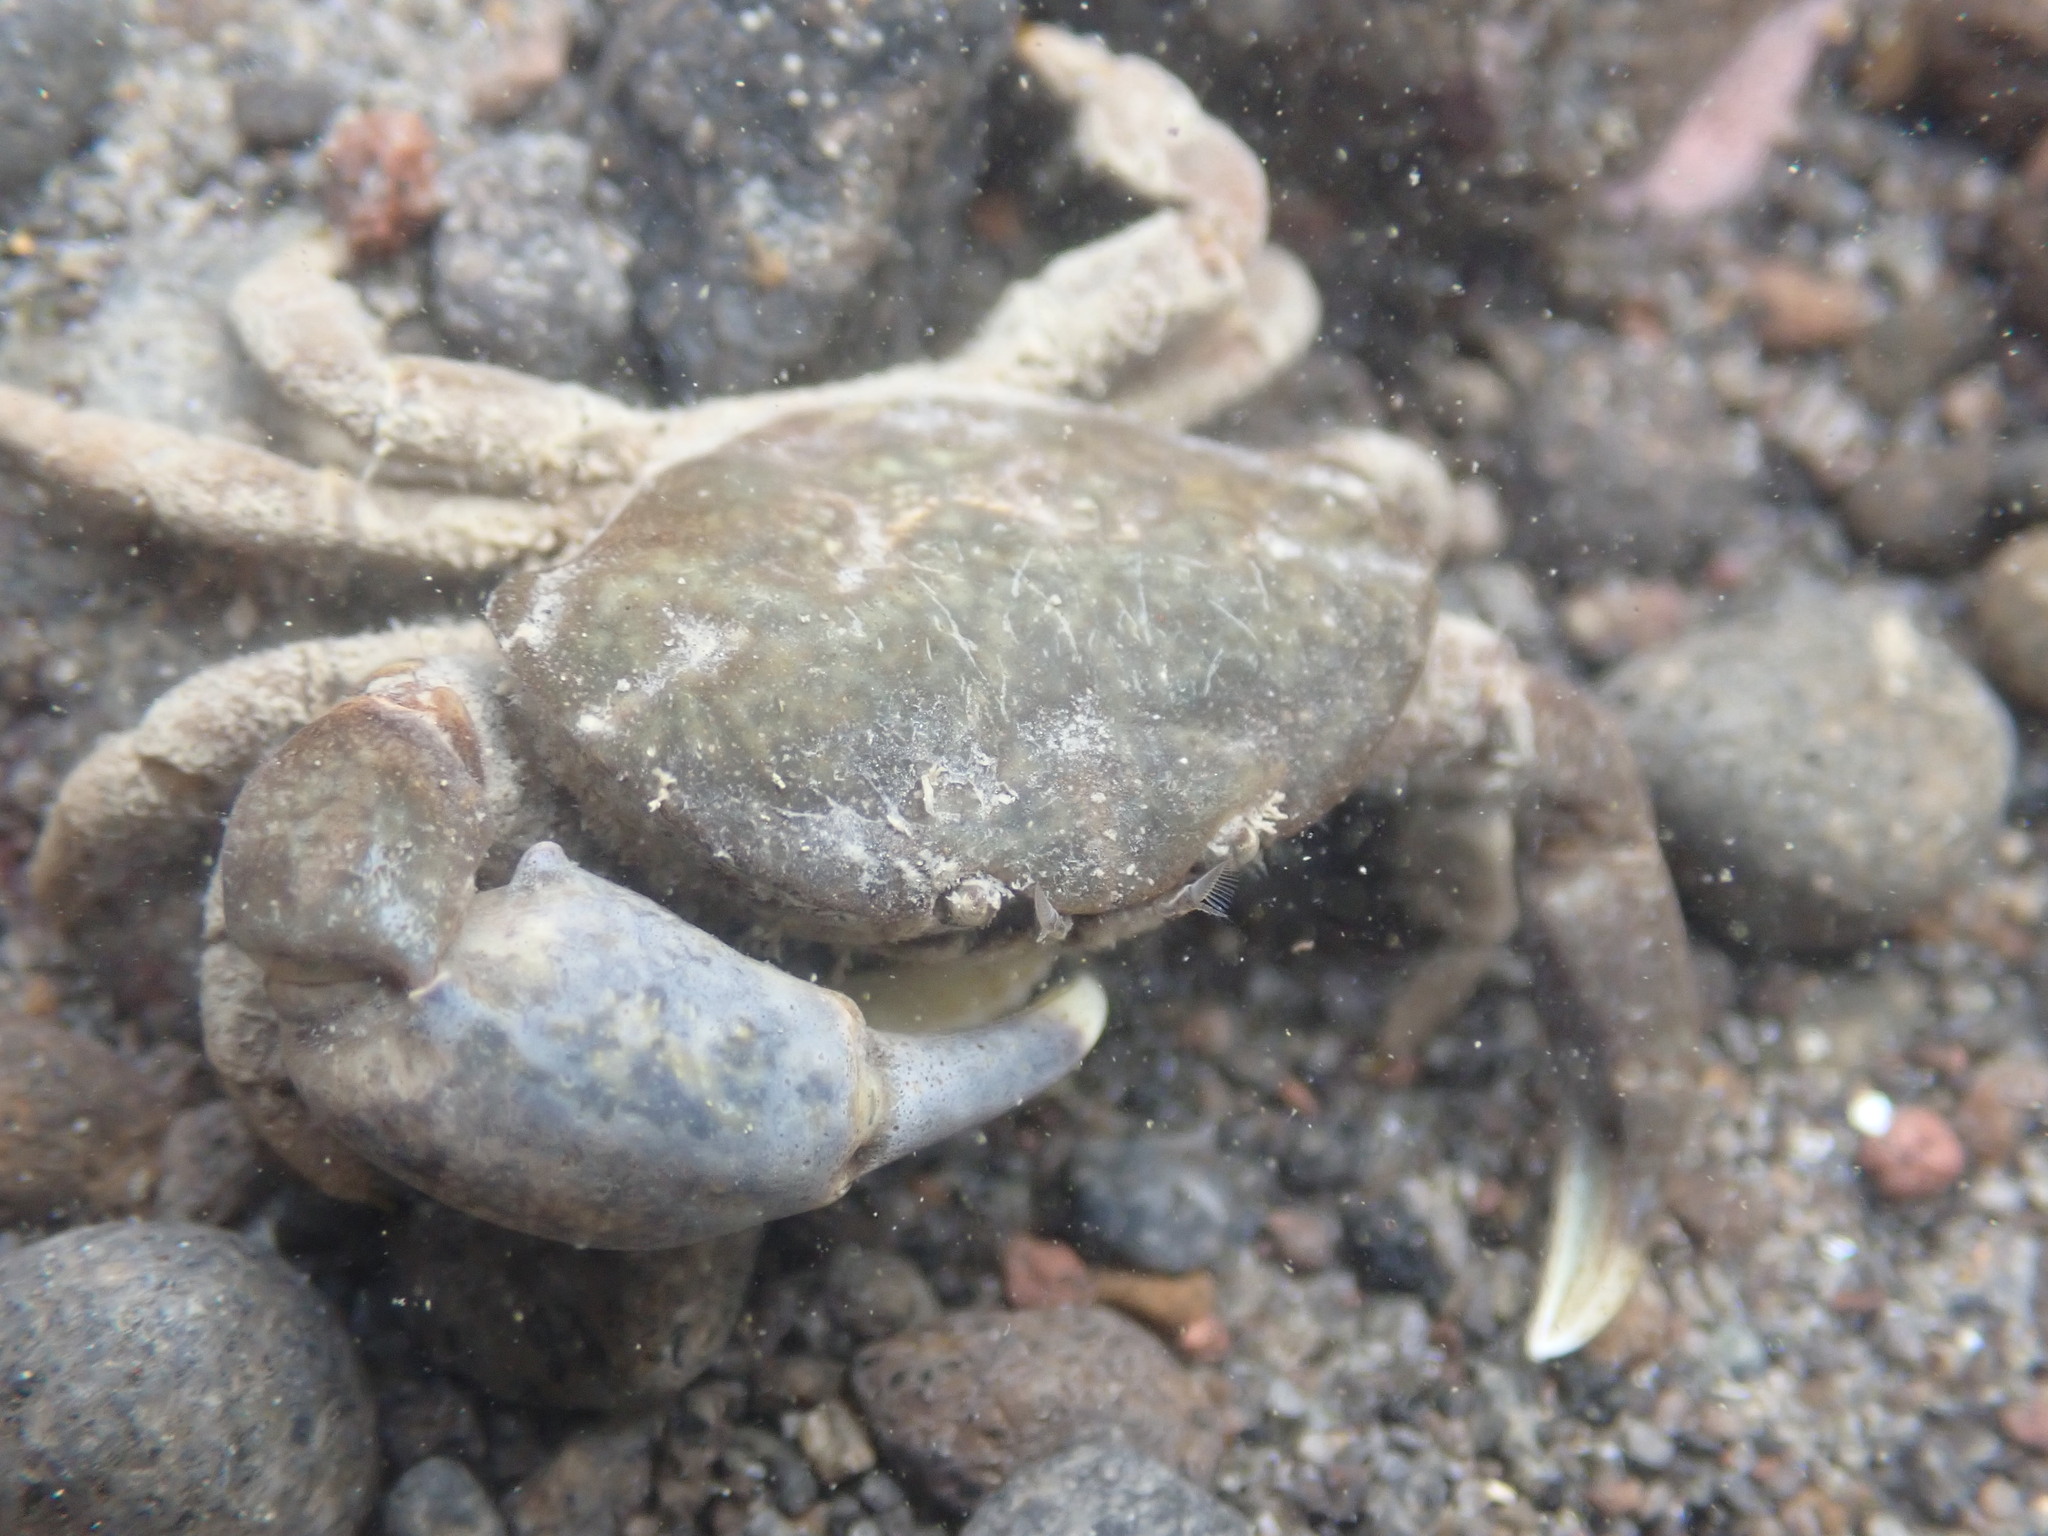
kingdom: Animalia
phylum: Arthropoda
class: Malacostraca
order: Decapoda
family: Heteroziidae
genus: Heterozius
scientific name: Heterozius rotundifrons
